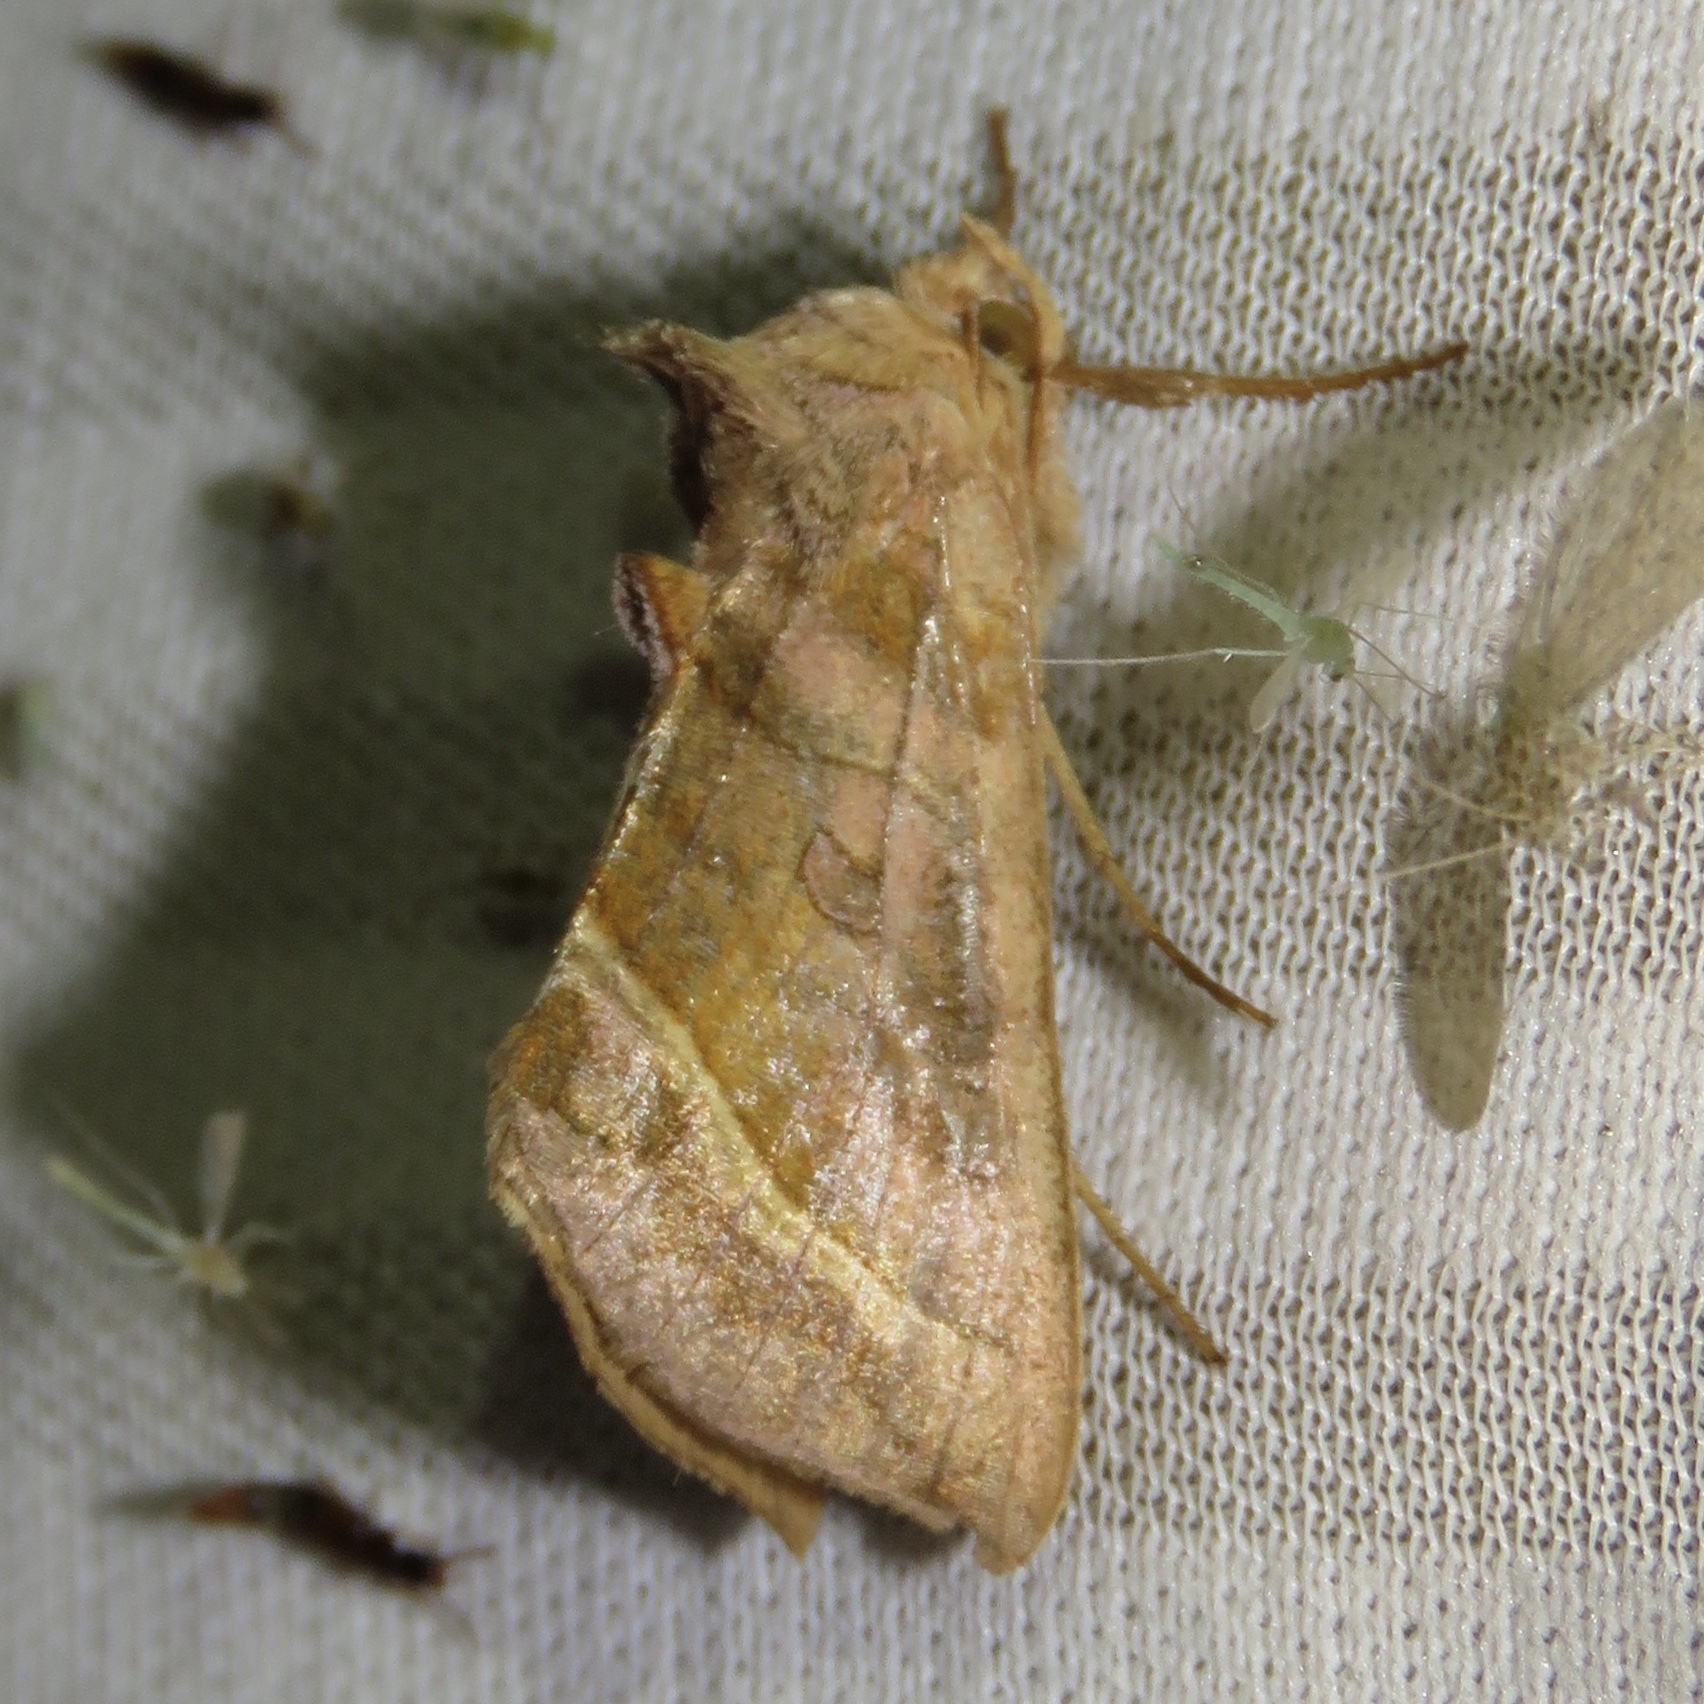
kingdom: Animalia
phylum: Arthropoda
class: Insecta
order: Lepidoptera
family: Noctuidae
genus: Diachrysia
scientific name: Diachrysia aereoides
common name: Dark-spotted looper moth
